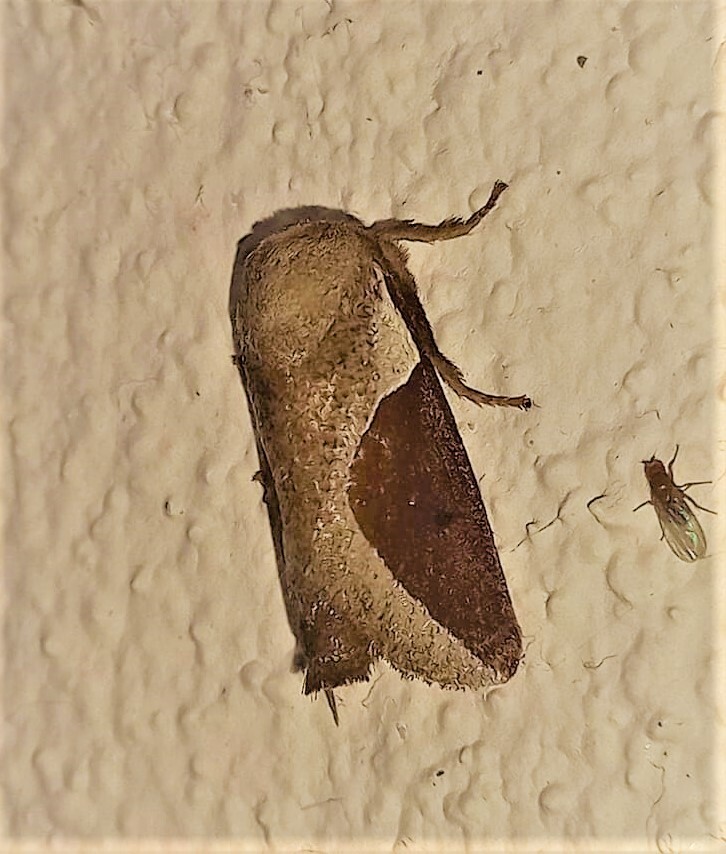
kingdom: Animalia
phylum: Arthropoda
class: Insecta
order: Lepidoptera
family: Limacodidae
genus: Prolimacodes
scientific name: Prolimacodes badia
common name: Skiff moth
